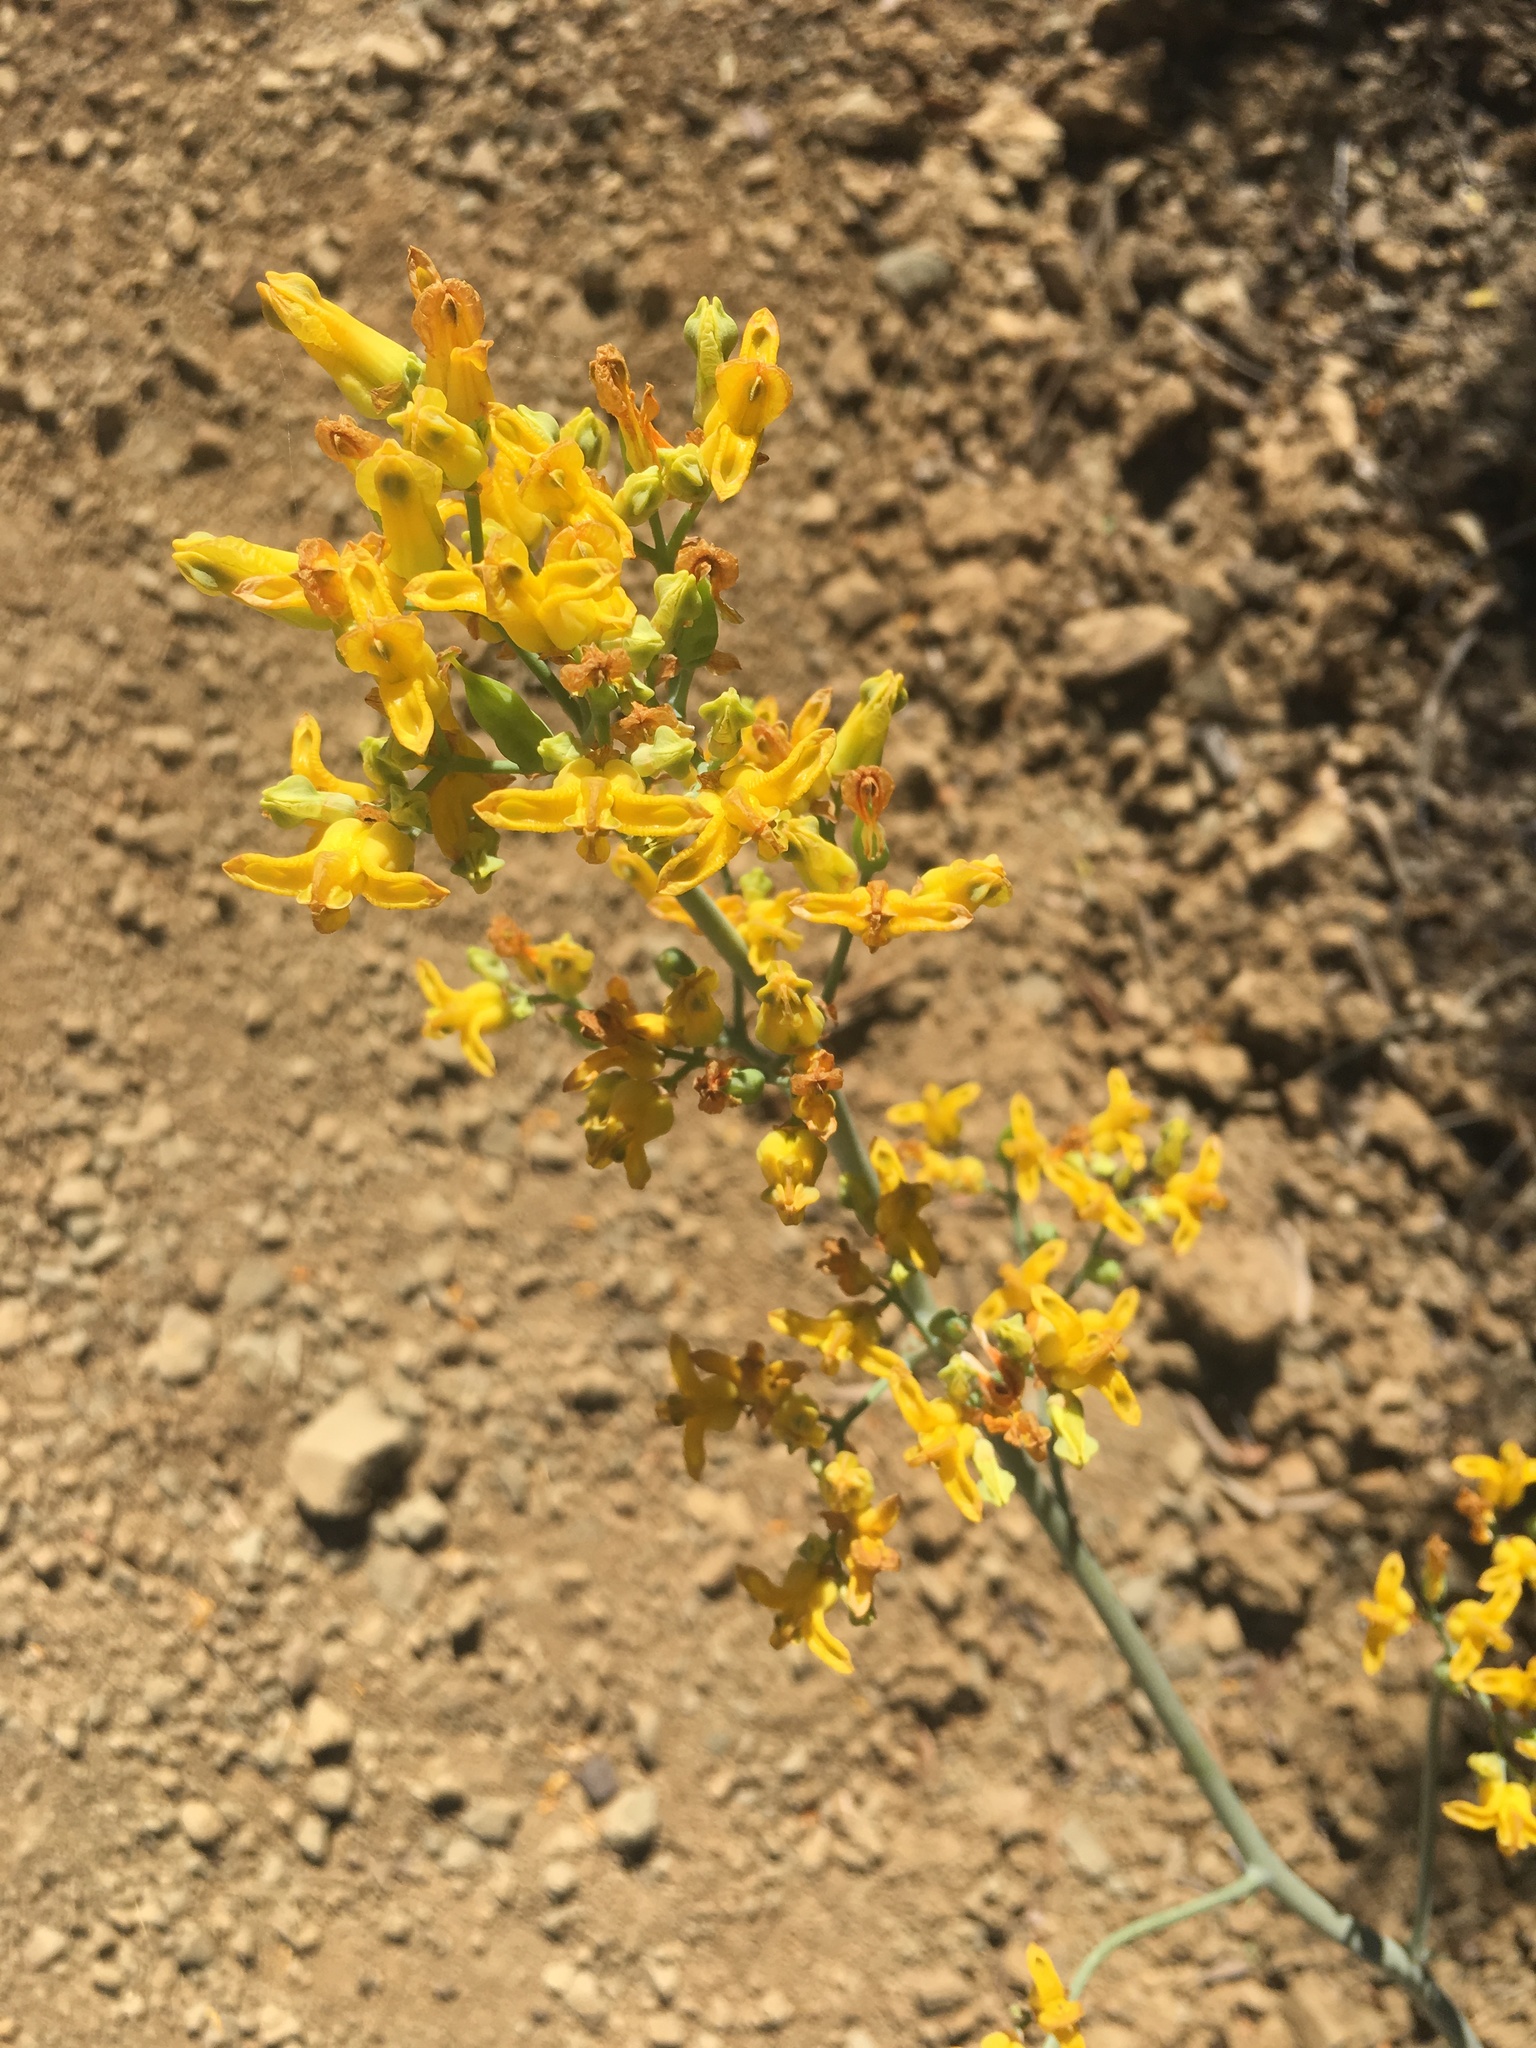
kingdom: Plantae
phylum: Tracheophyta
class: Magnoliopsida
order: Ranunculales
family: Papaveraceae
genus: Ehrendorferia
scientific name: Ehrendorferia chrysantha
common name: Golden eardrops
